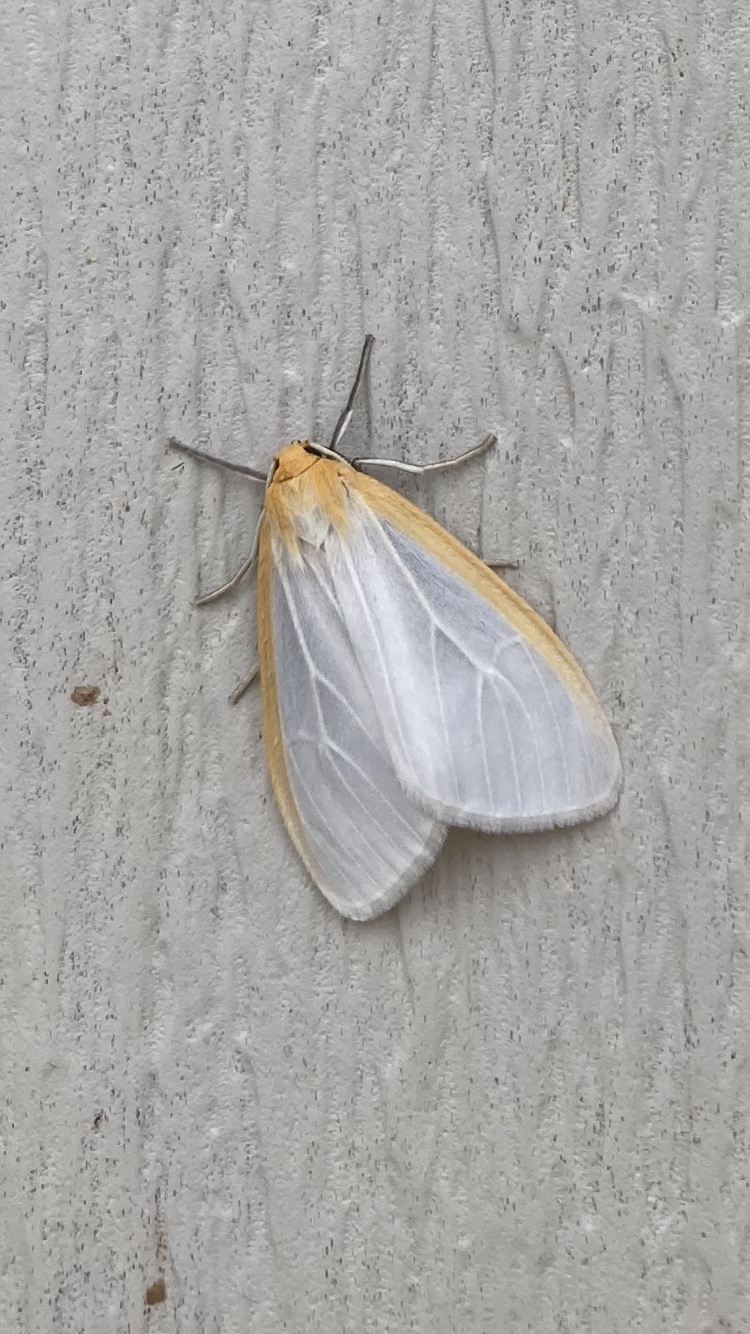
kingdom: Animalia
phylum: Arthropoda
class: Insecta
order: Lepidoptera
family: Erebidae
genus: Cycnia
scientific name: Cycnia tenera
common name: Delicate cycnia moth
